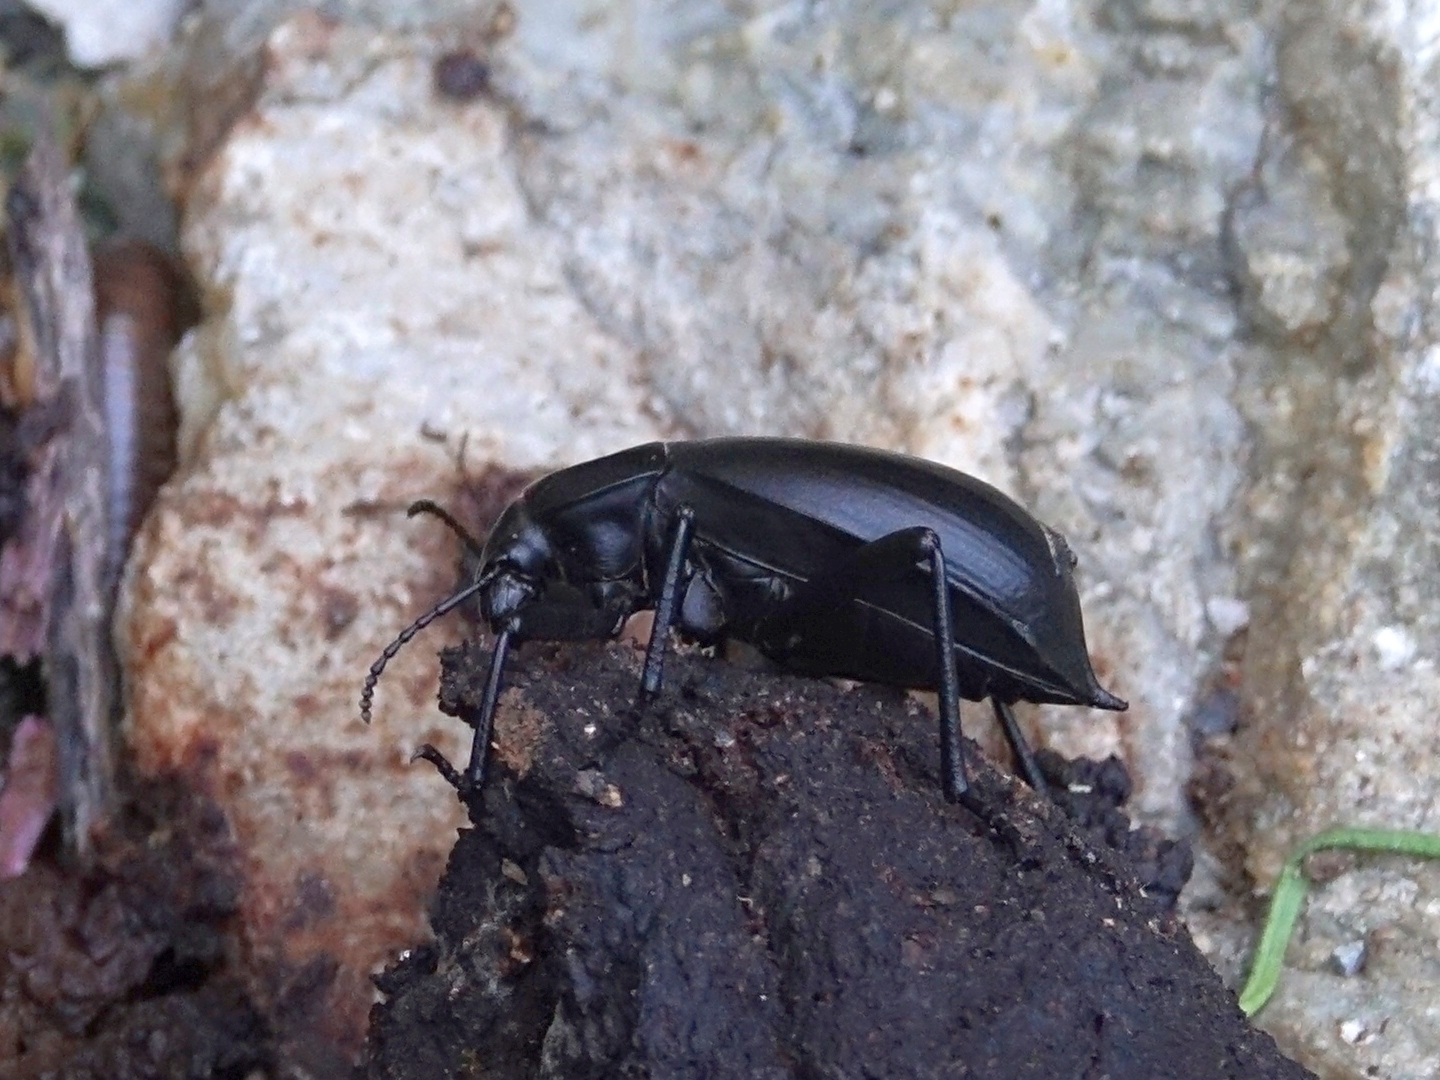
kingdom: Animalia
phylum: Arthropoda
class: Insecta
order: Coleoptera
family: Tenebrionidae
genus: Blaps
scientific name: Blaps gigas
